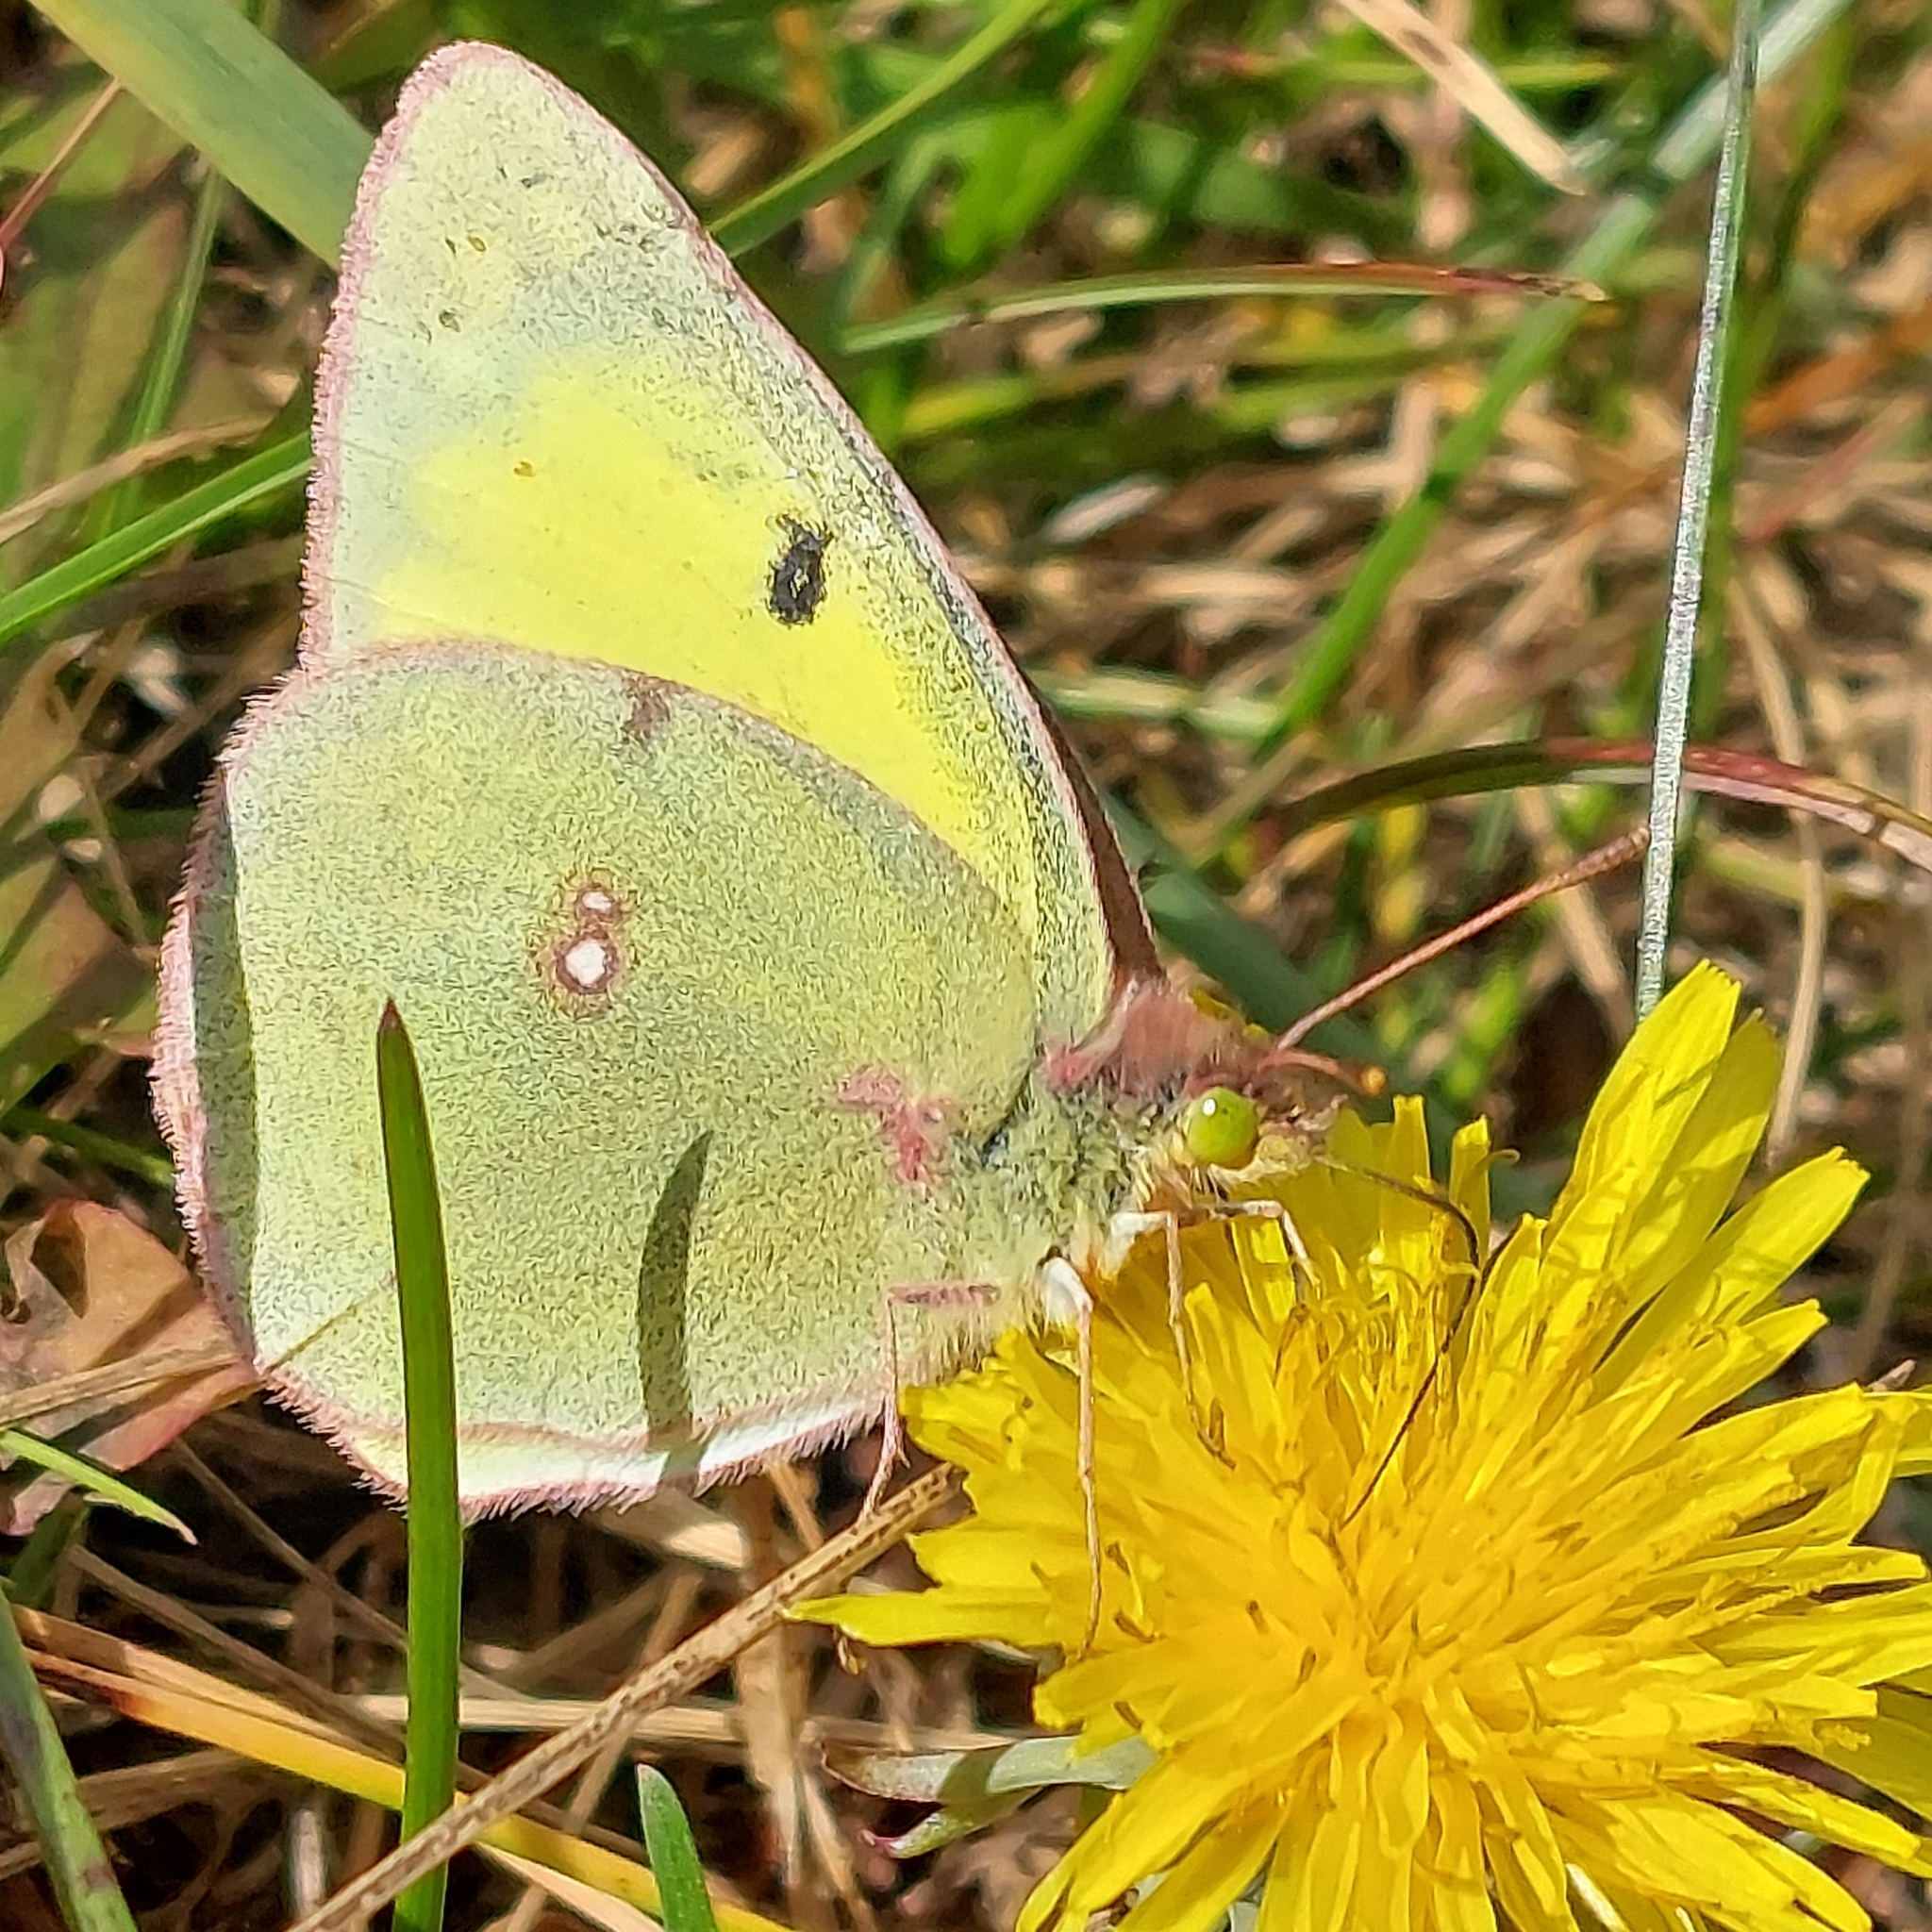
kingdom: Animalia
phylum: Arthropoda
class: Insecta
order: Lepidoptera
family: Pieridae
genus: Colias
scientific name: Colias philodice
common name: Clouded sulphur
